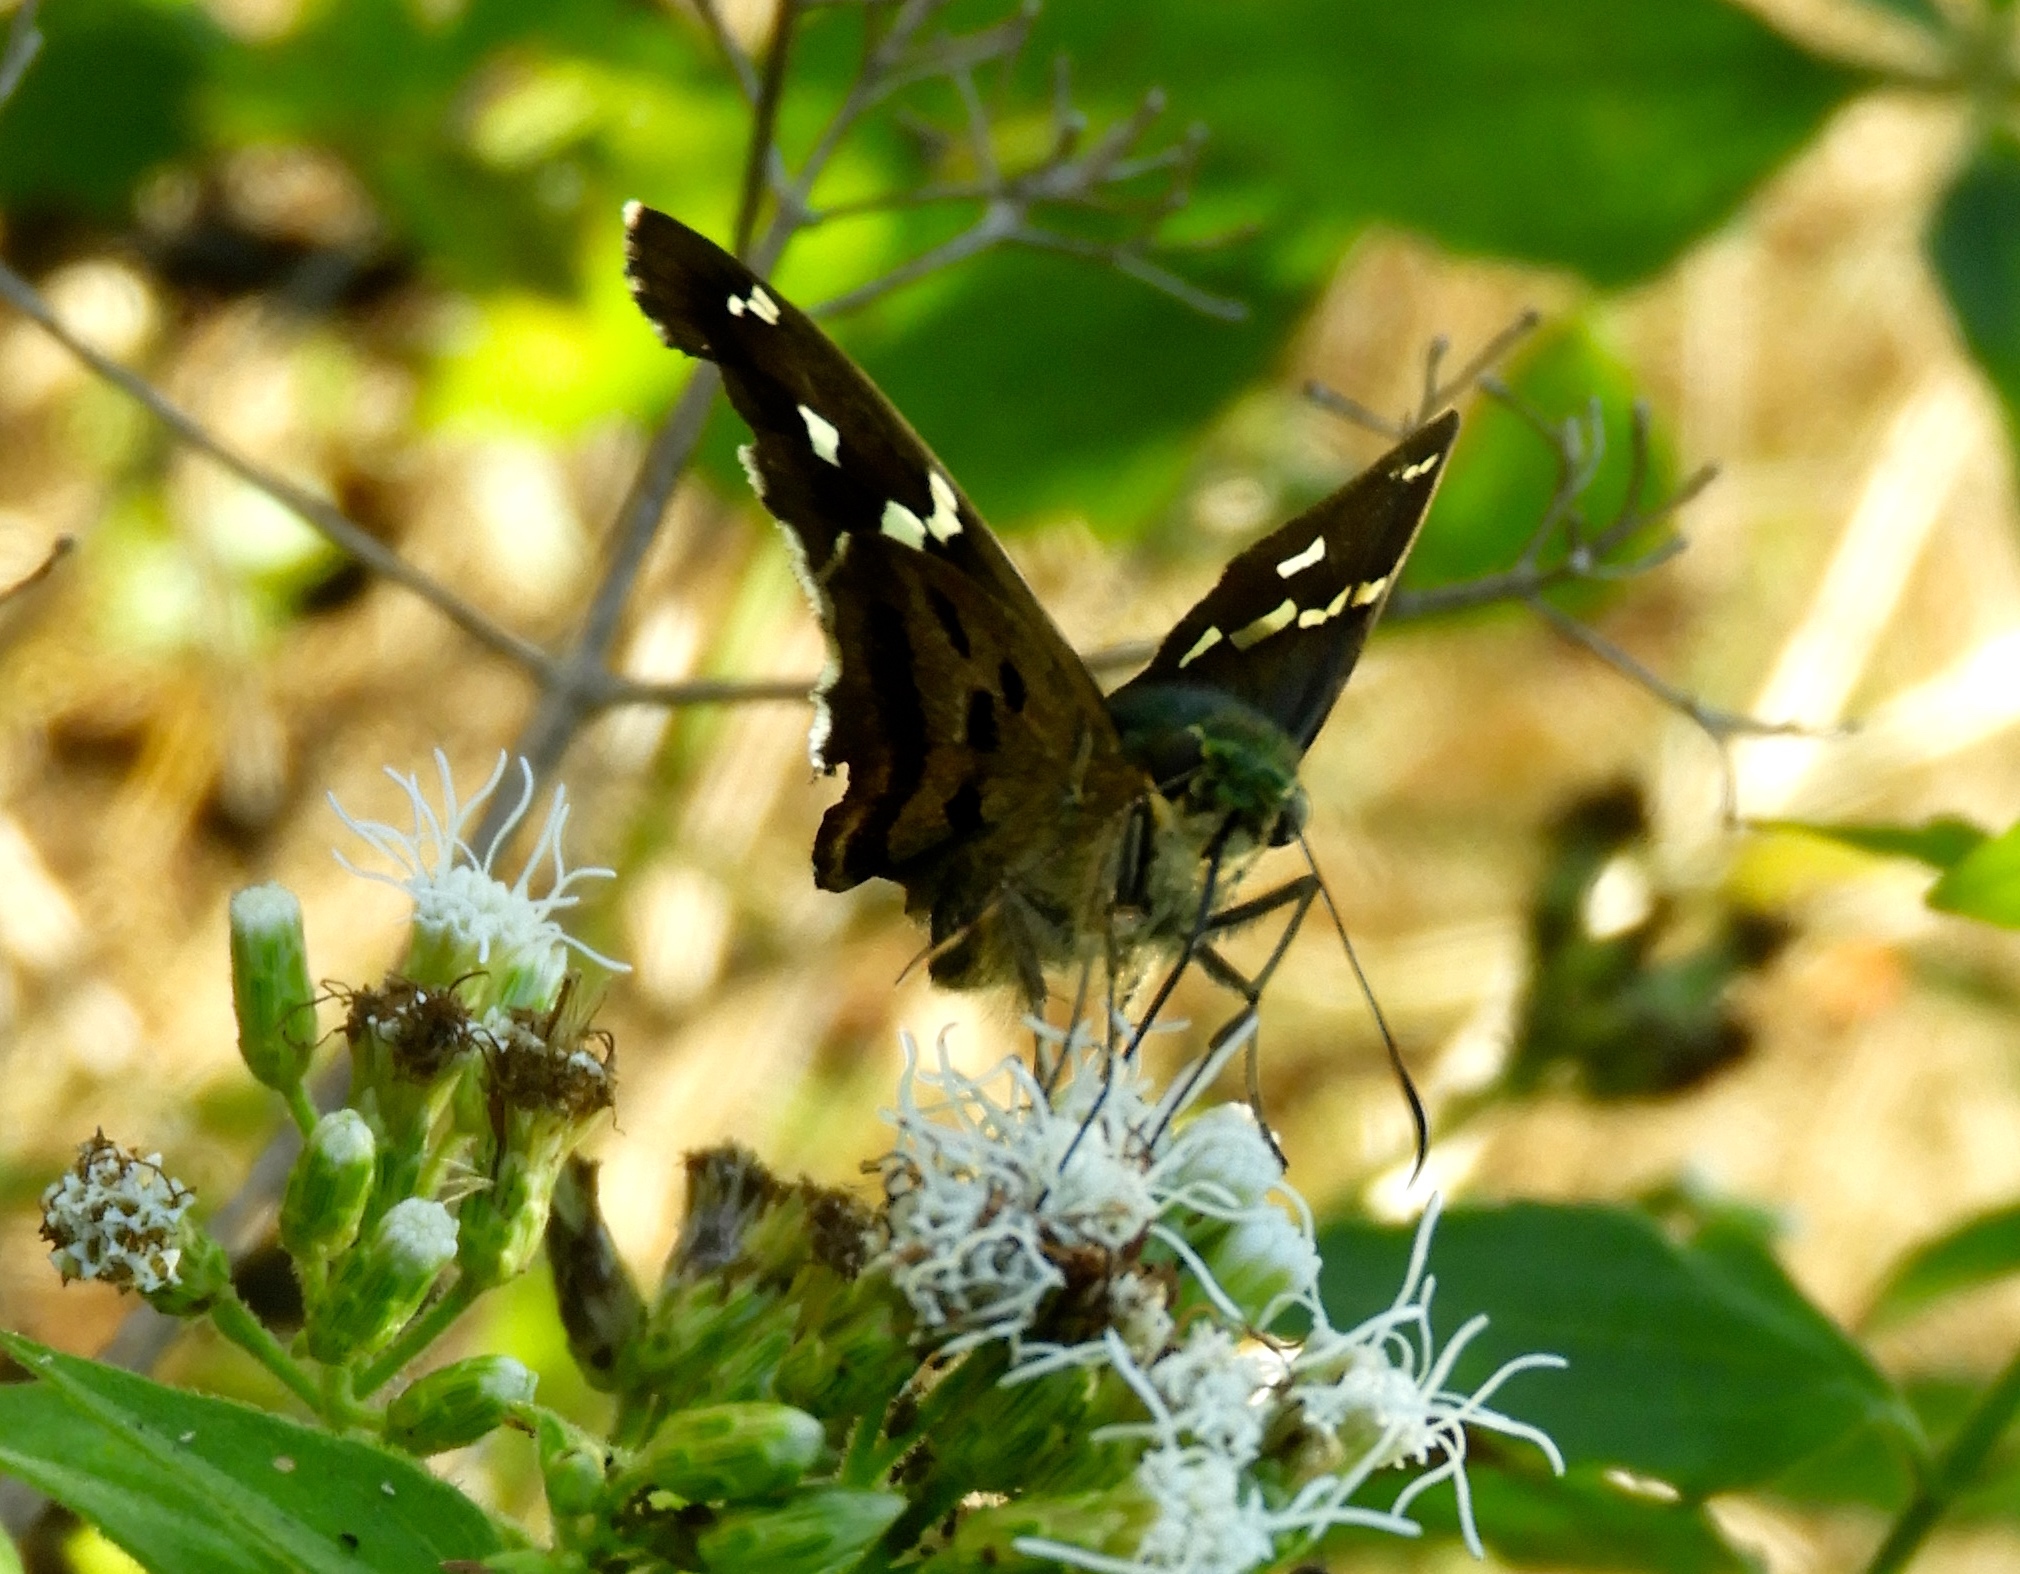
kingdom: Animalia
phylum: Arthropoda
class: Insecta
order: Lepidoptera
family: Hesperiidae
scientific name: Hesperiidae
